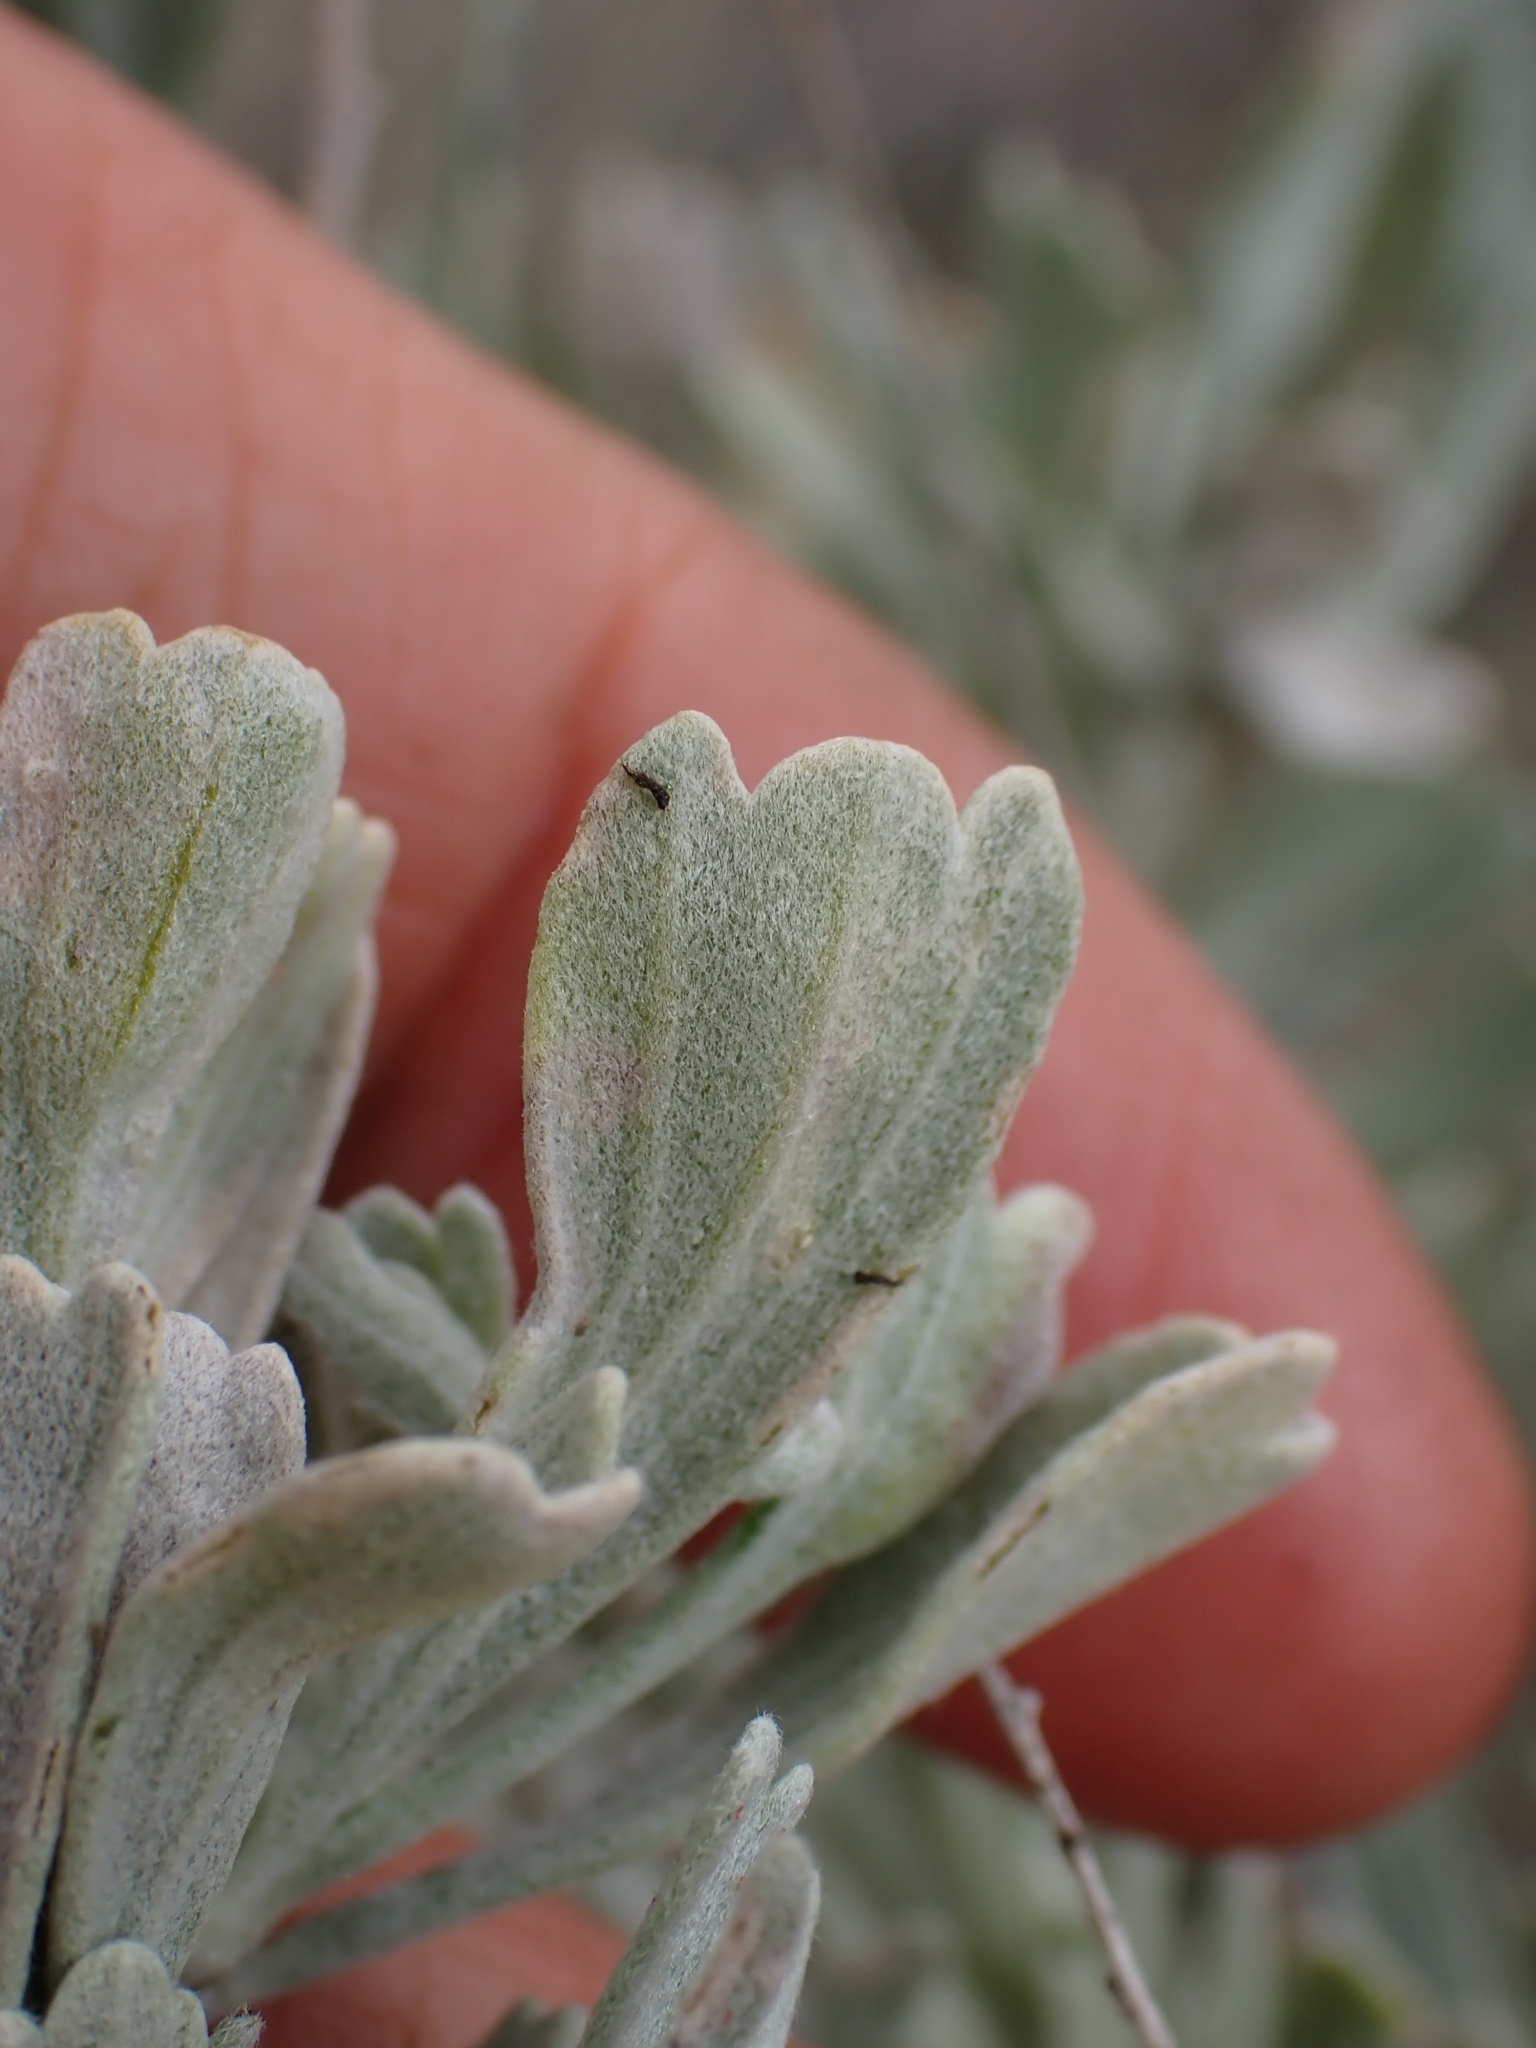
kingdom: Plantae
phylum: Tracheophyta
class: Magnoliopsida
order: Asterales
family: Asteraceae
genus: Artemisia
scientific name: Artemisia tridentata
